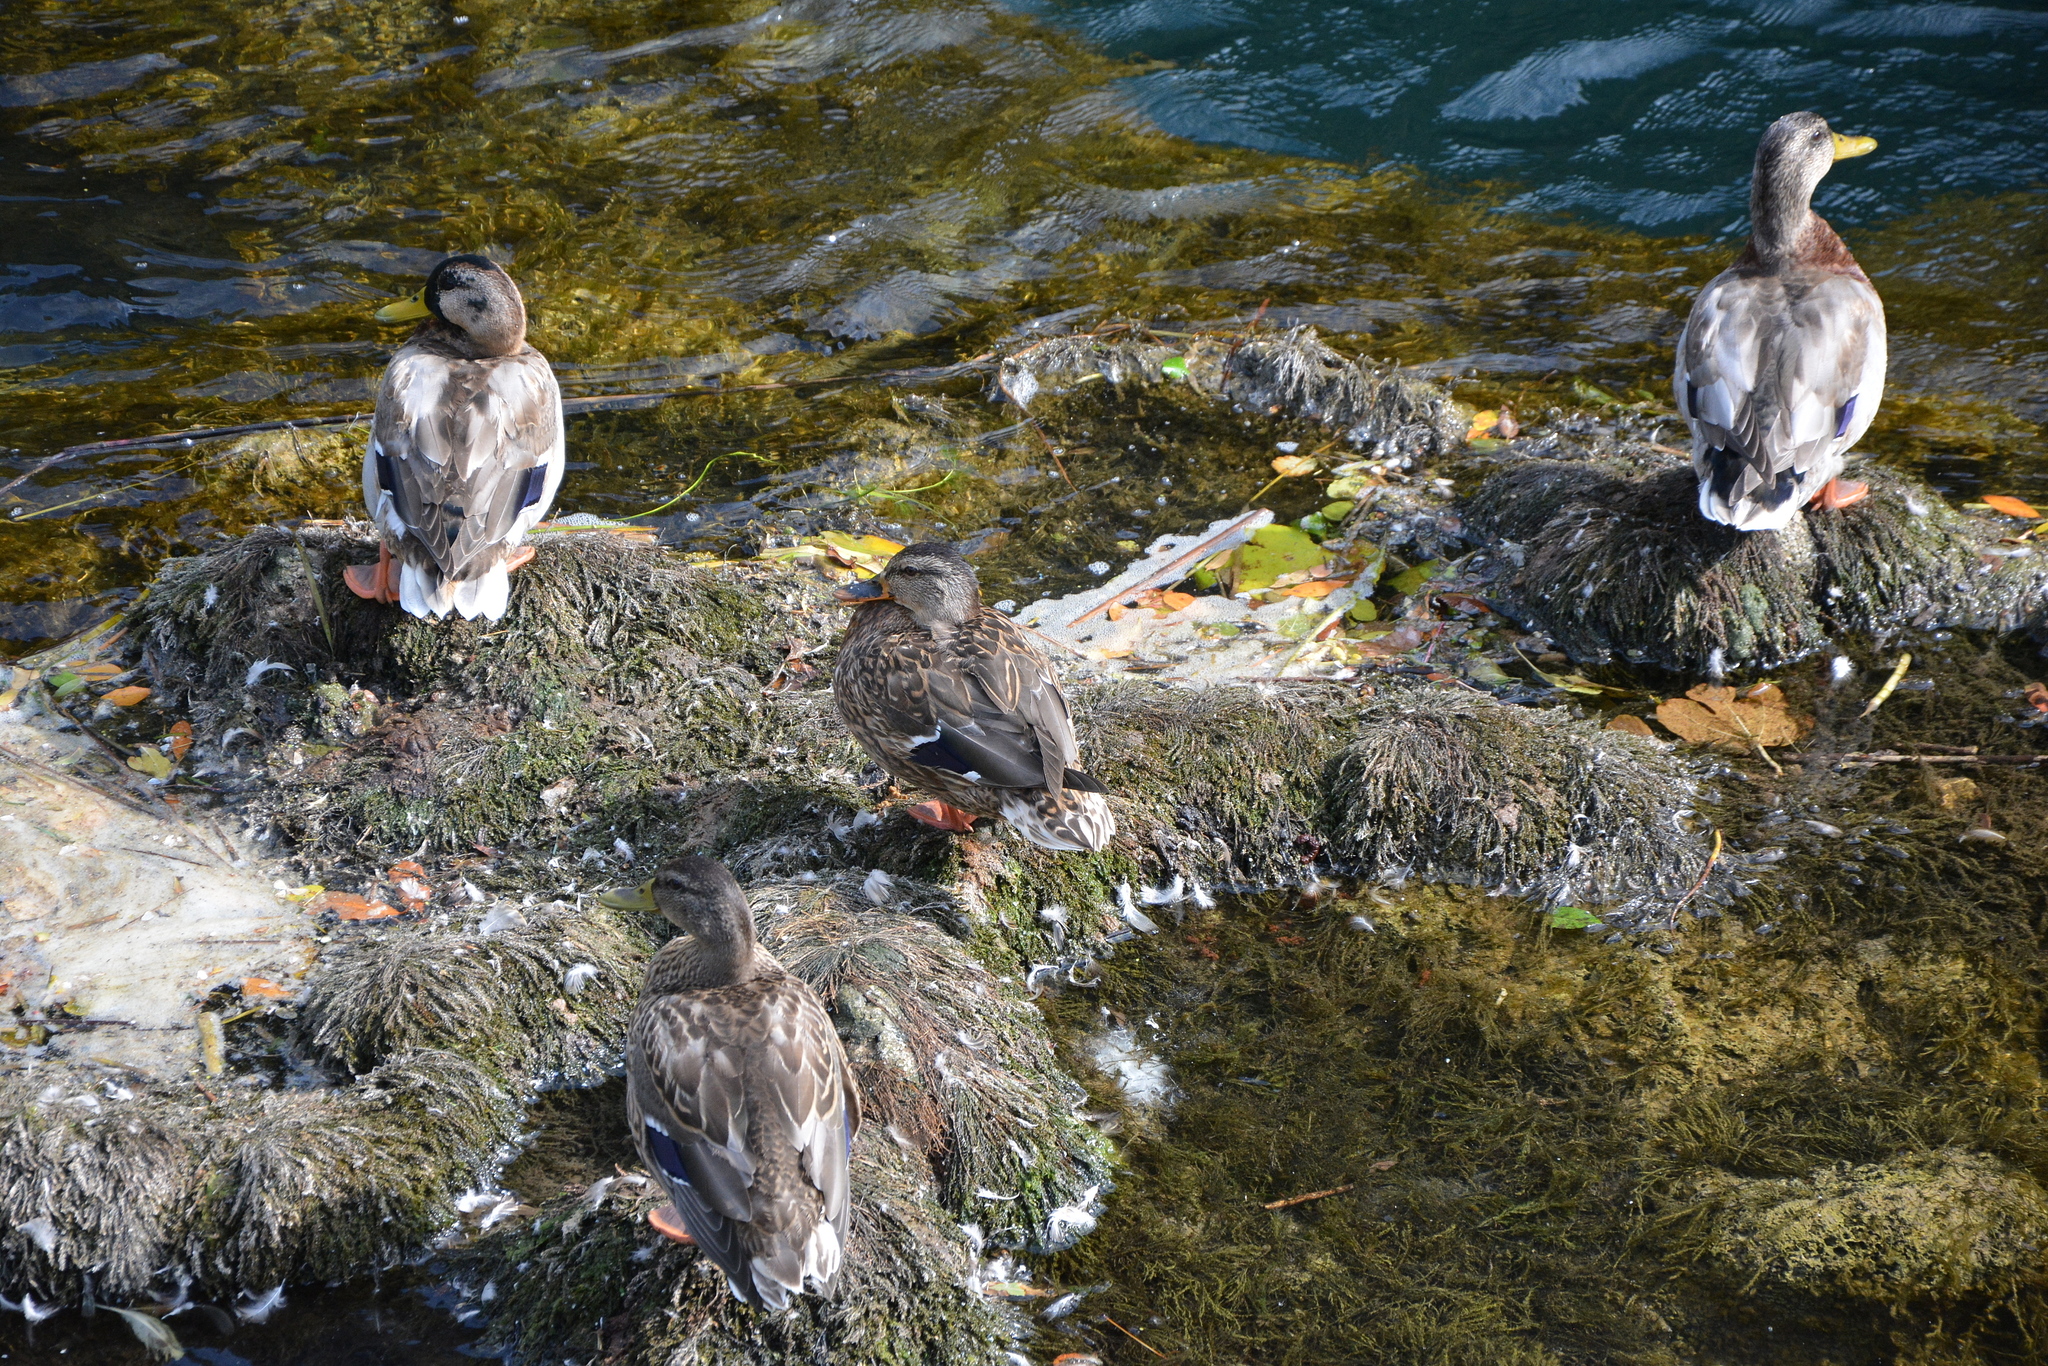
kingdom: Animalia
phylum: Chordata
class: Aves
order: Anseriformes
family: Anatidae
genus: Anas
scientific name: Anas platyrhynchos
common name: Mallard
